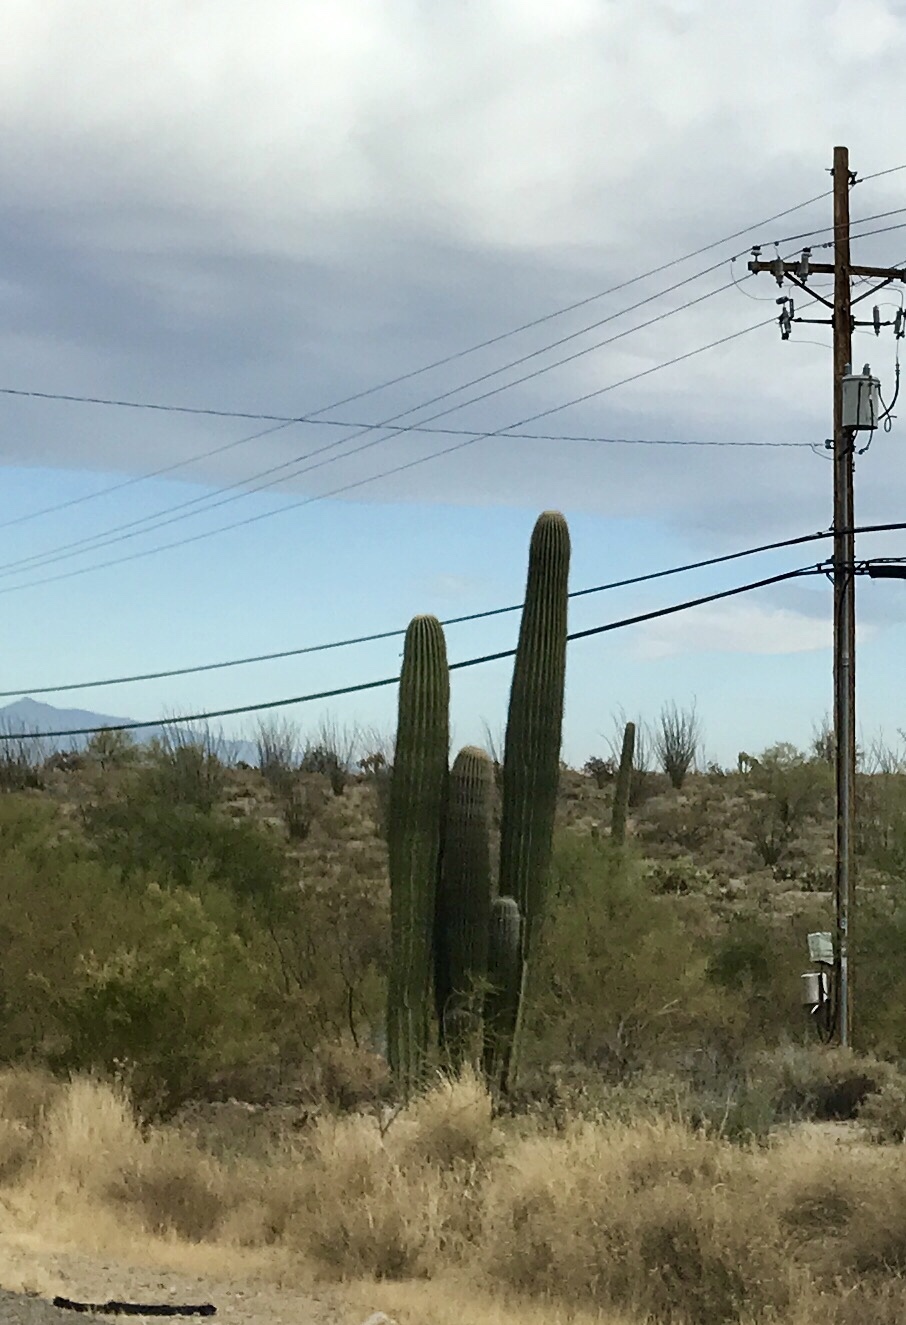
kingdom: Plantae
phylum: Tracheophyta
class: Magnoliopsida
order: Caryophyllales
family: Cactaceae
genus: Carnegiea
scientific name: Carnegiea gigantea
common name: Saguaro
